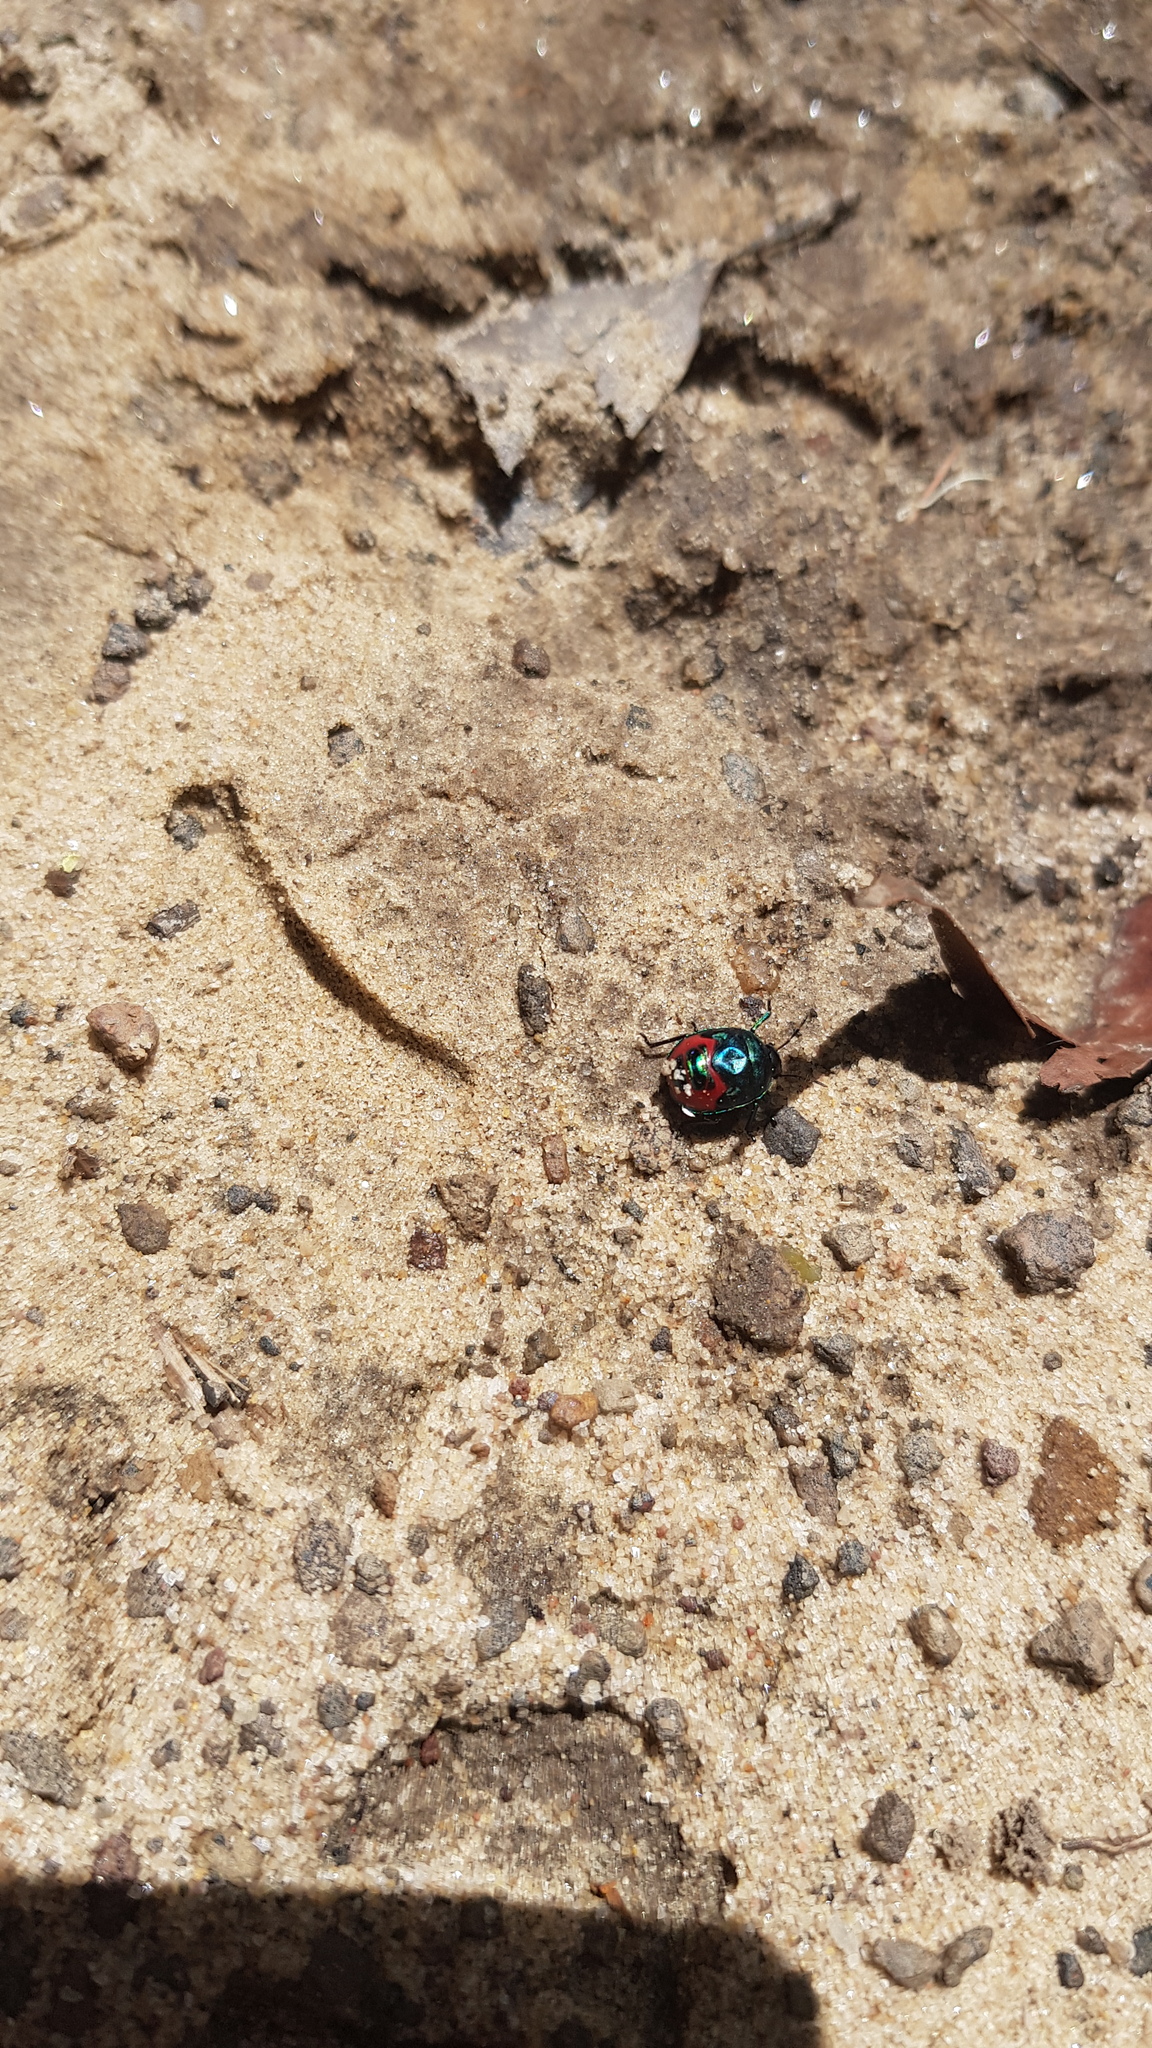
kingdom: Animalia
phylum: Arthropoda
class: Insecta
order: Hemiptera
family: Scutelleridae
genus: Choerocoris
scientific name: Choerocoris paganus
